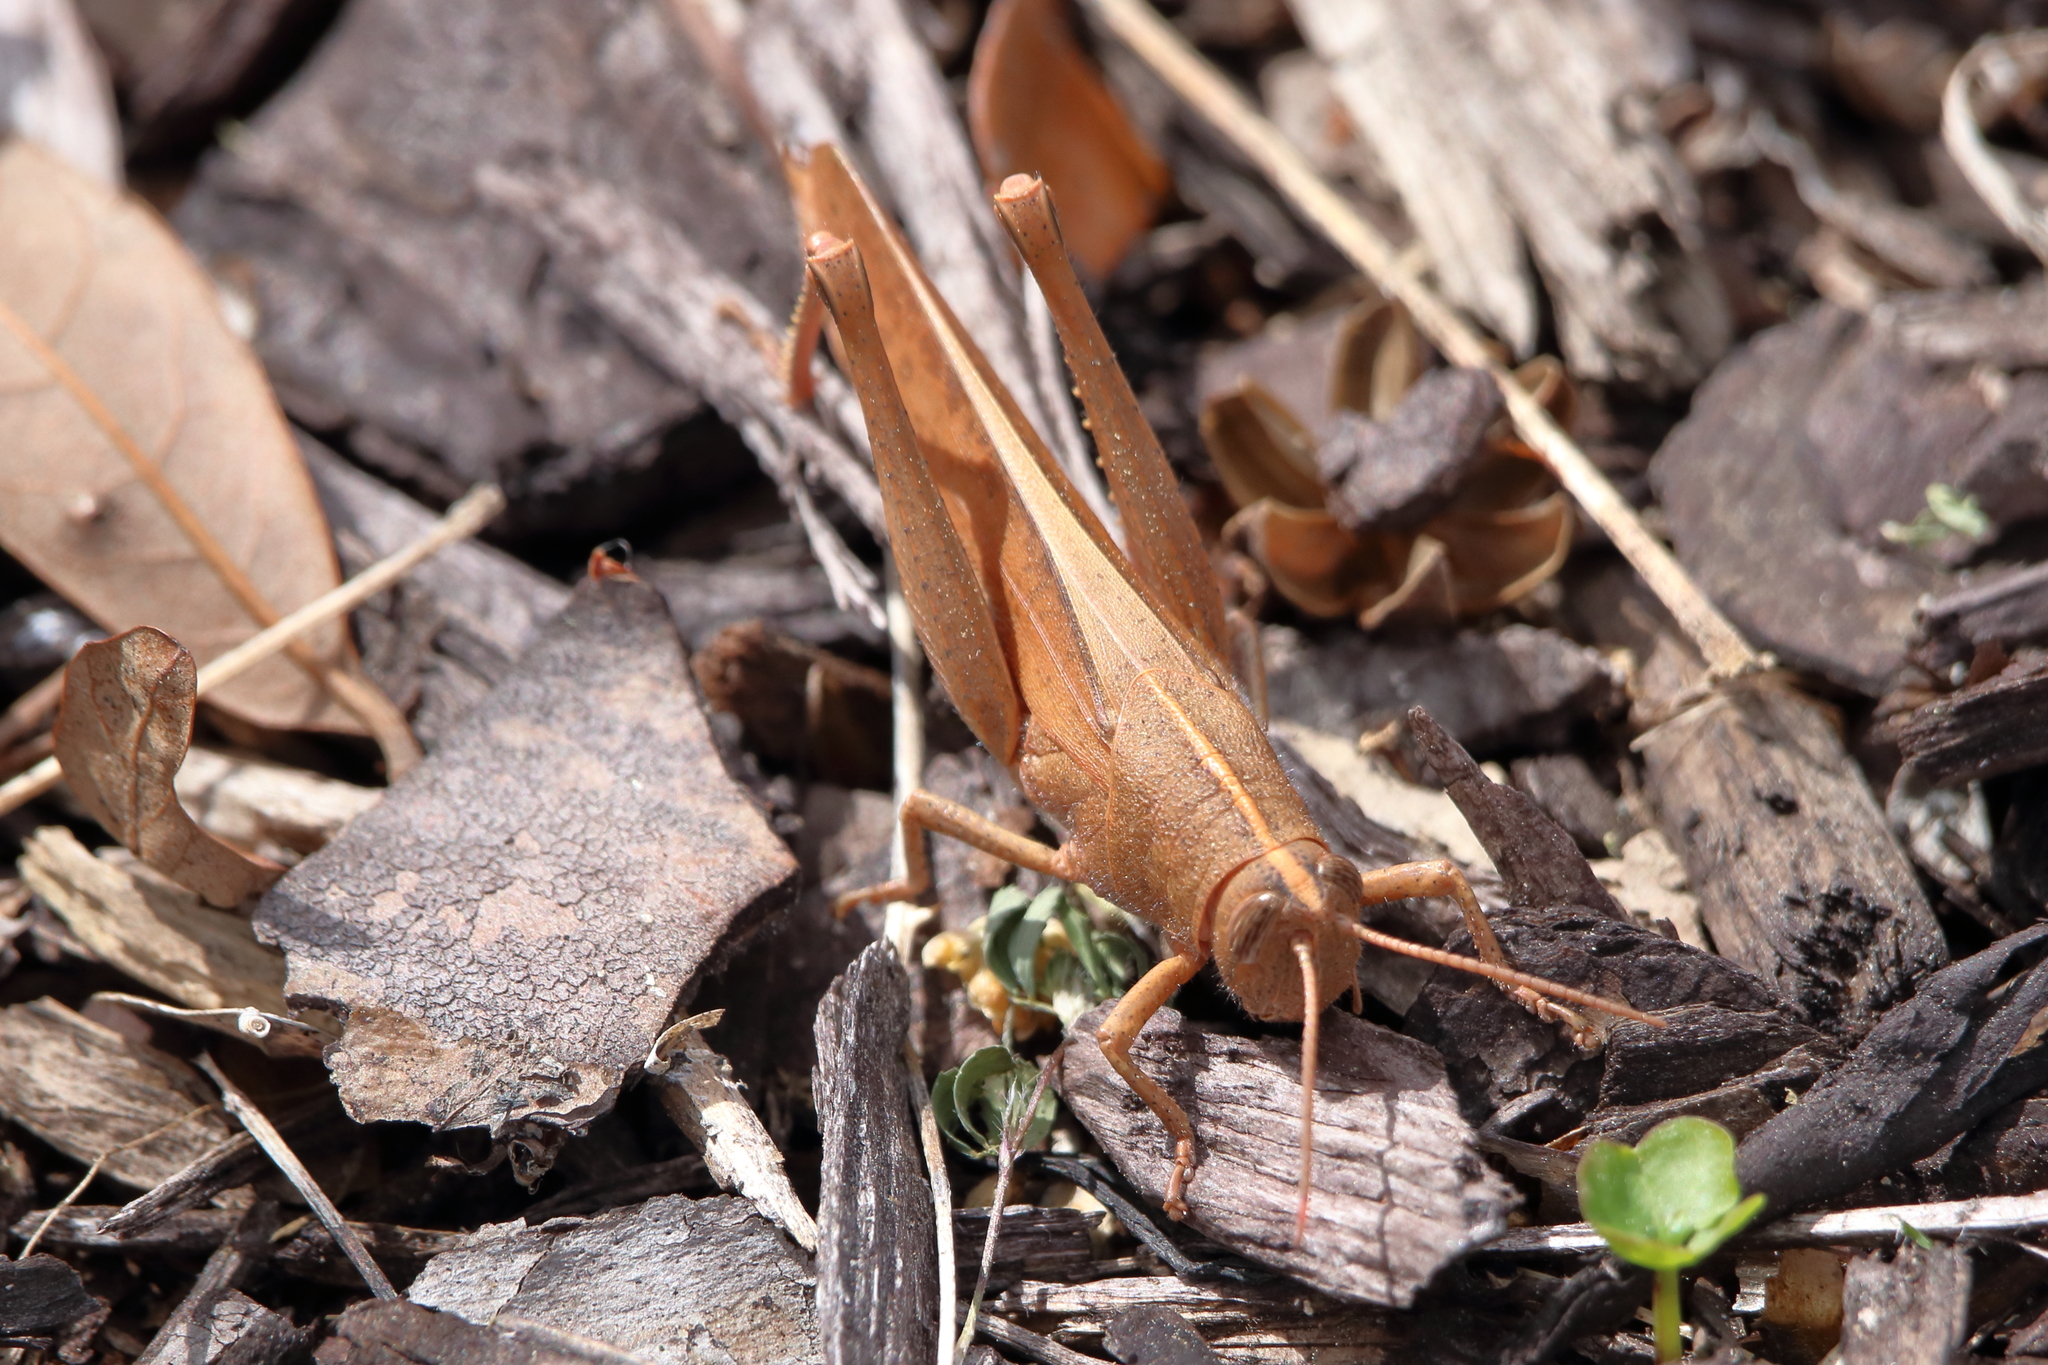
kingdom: Animalia
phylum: Arthropoda
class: Insecta
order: Orthoptera
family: Acrididae
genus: Schistocerca
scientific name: Schistocerca damnifica
